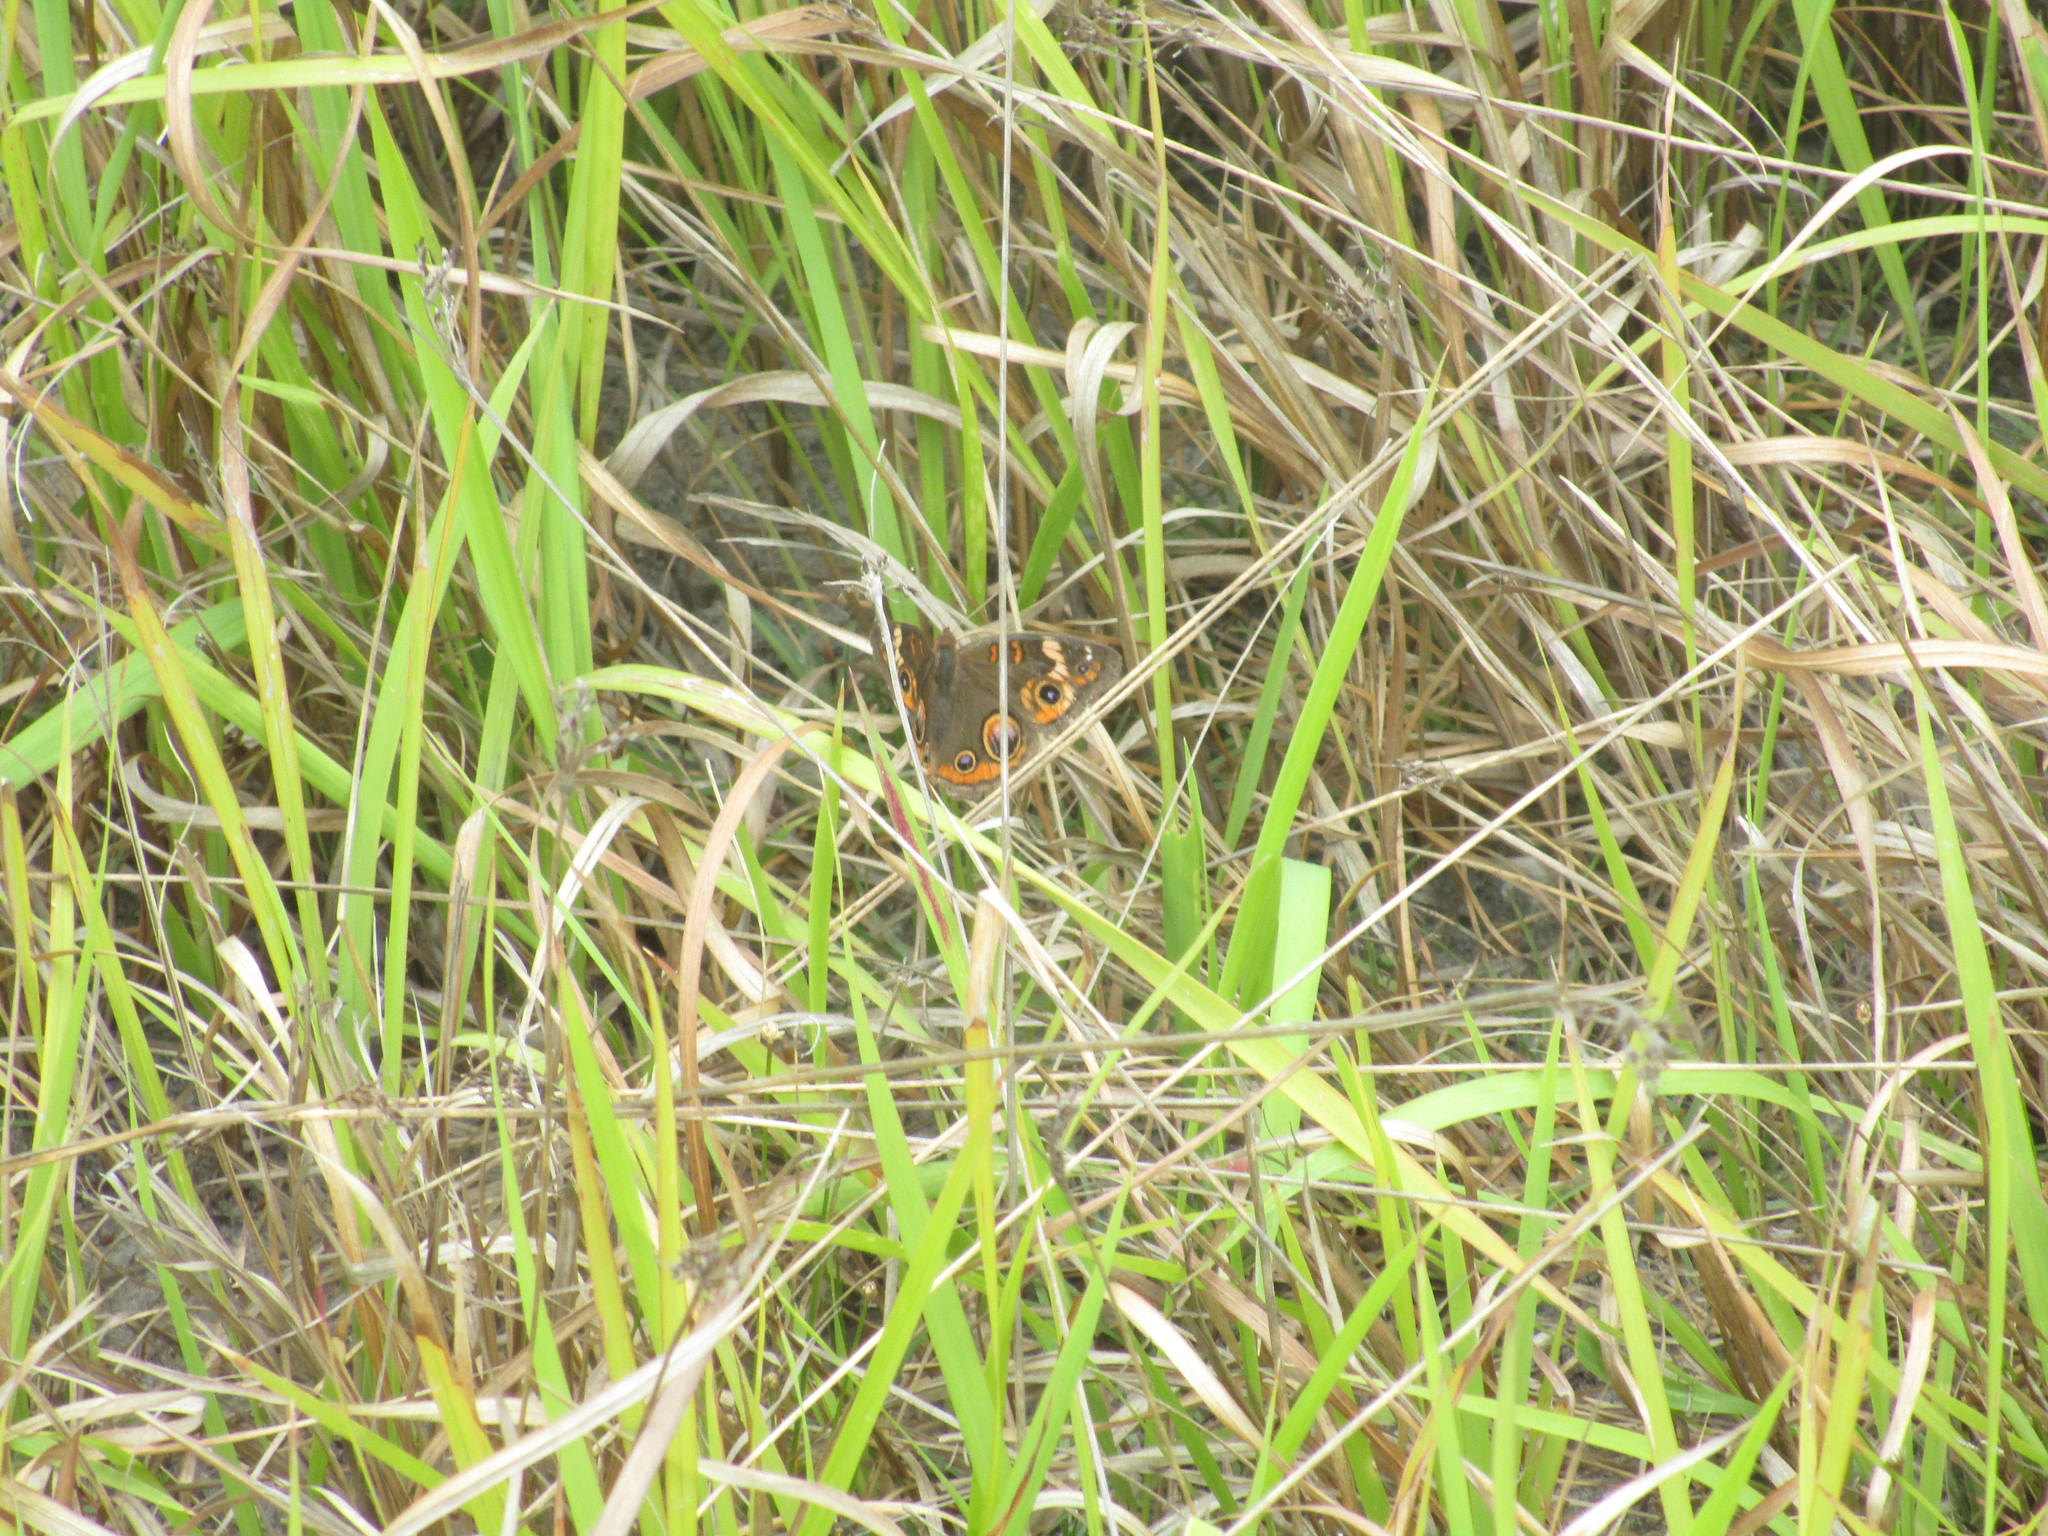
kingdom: Animalia
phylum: Arthropoda
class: Insecta
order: Lepidoptera
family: Nymphalidae
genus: Junonia
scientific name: Junonia coenia
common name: Common buckeye
